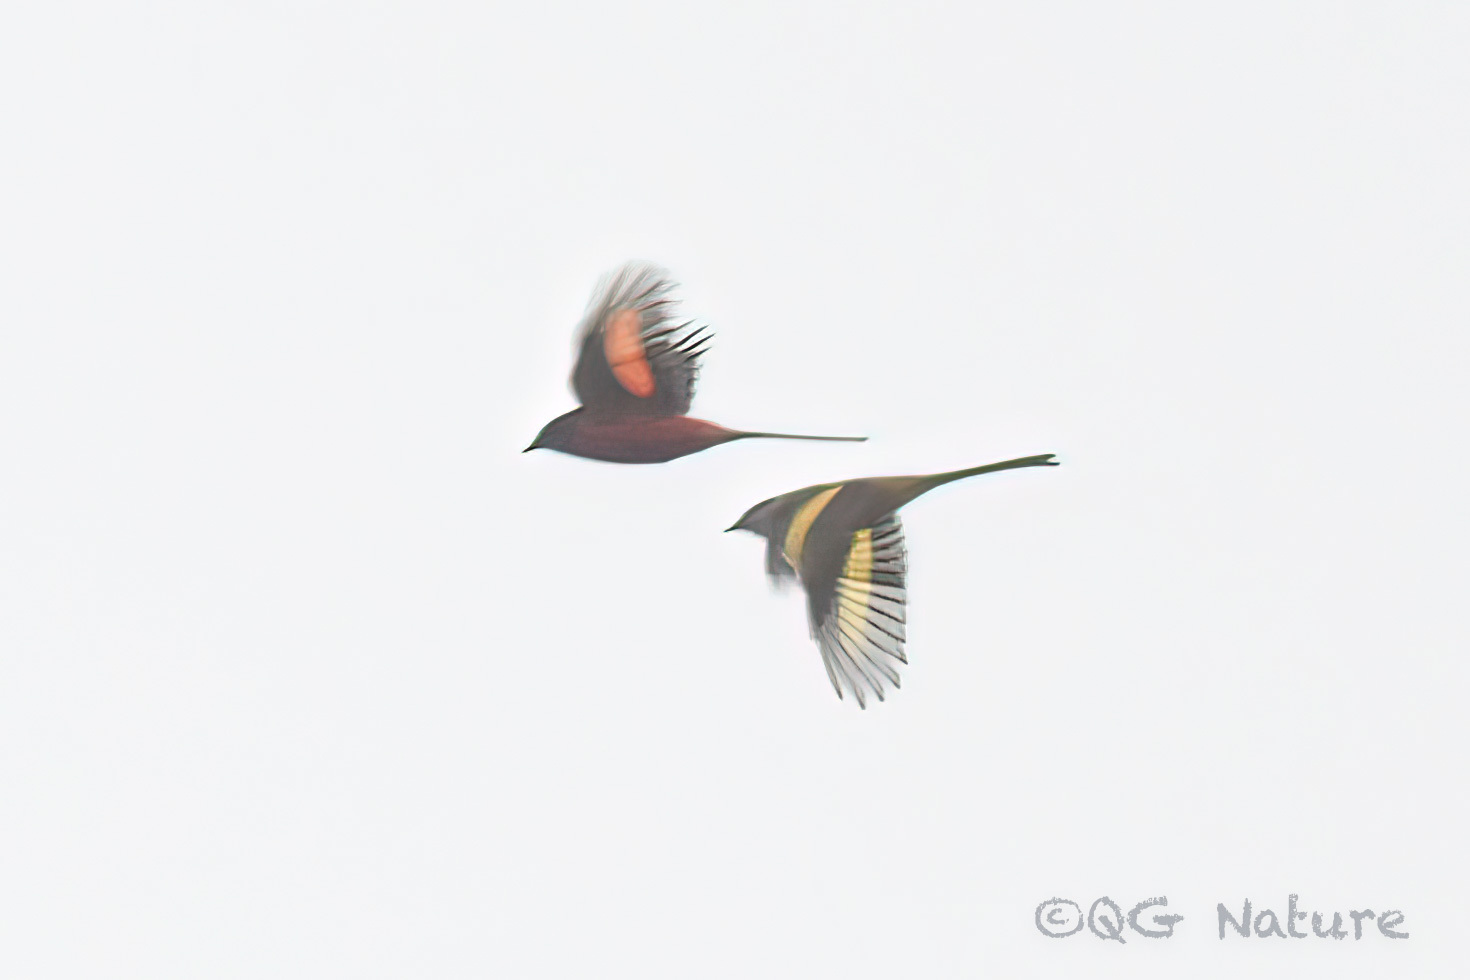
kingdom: Animalia
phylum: Chordata
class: Aves
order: Passeriformes
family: Campephagidae
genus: Pericrocotus
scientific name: Pericrocotus ethologus
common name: Long-tailed minivet
